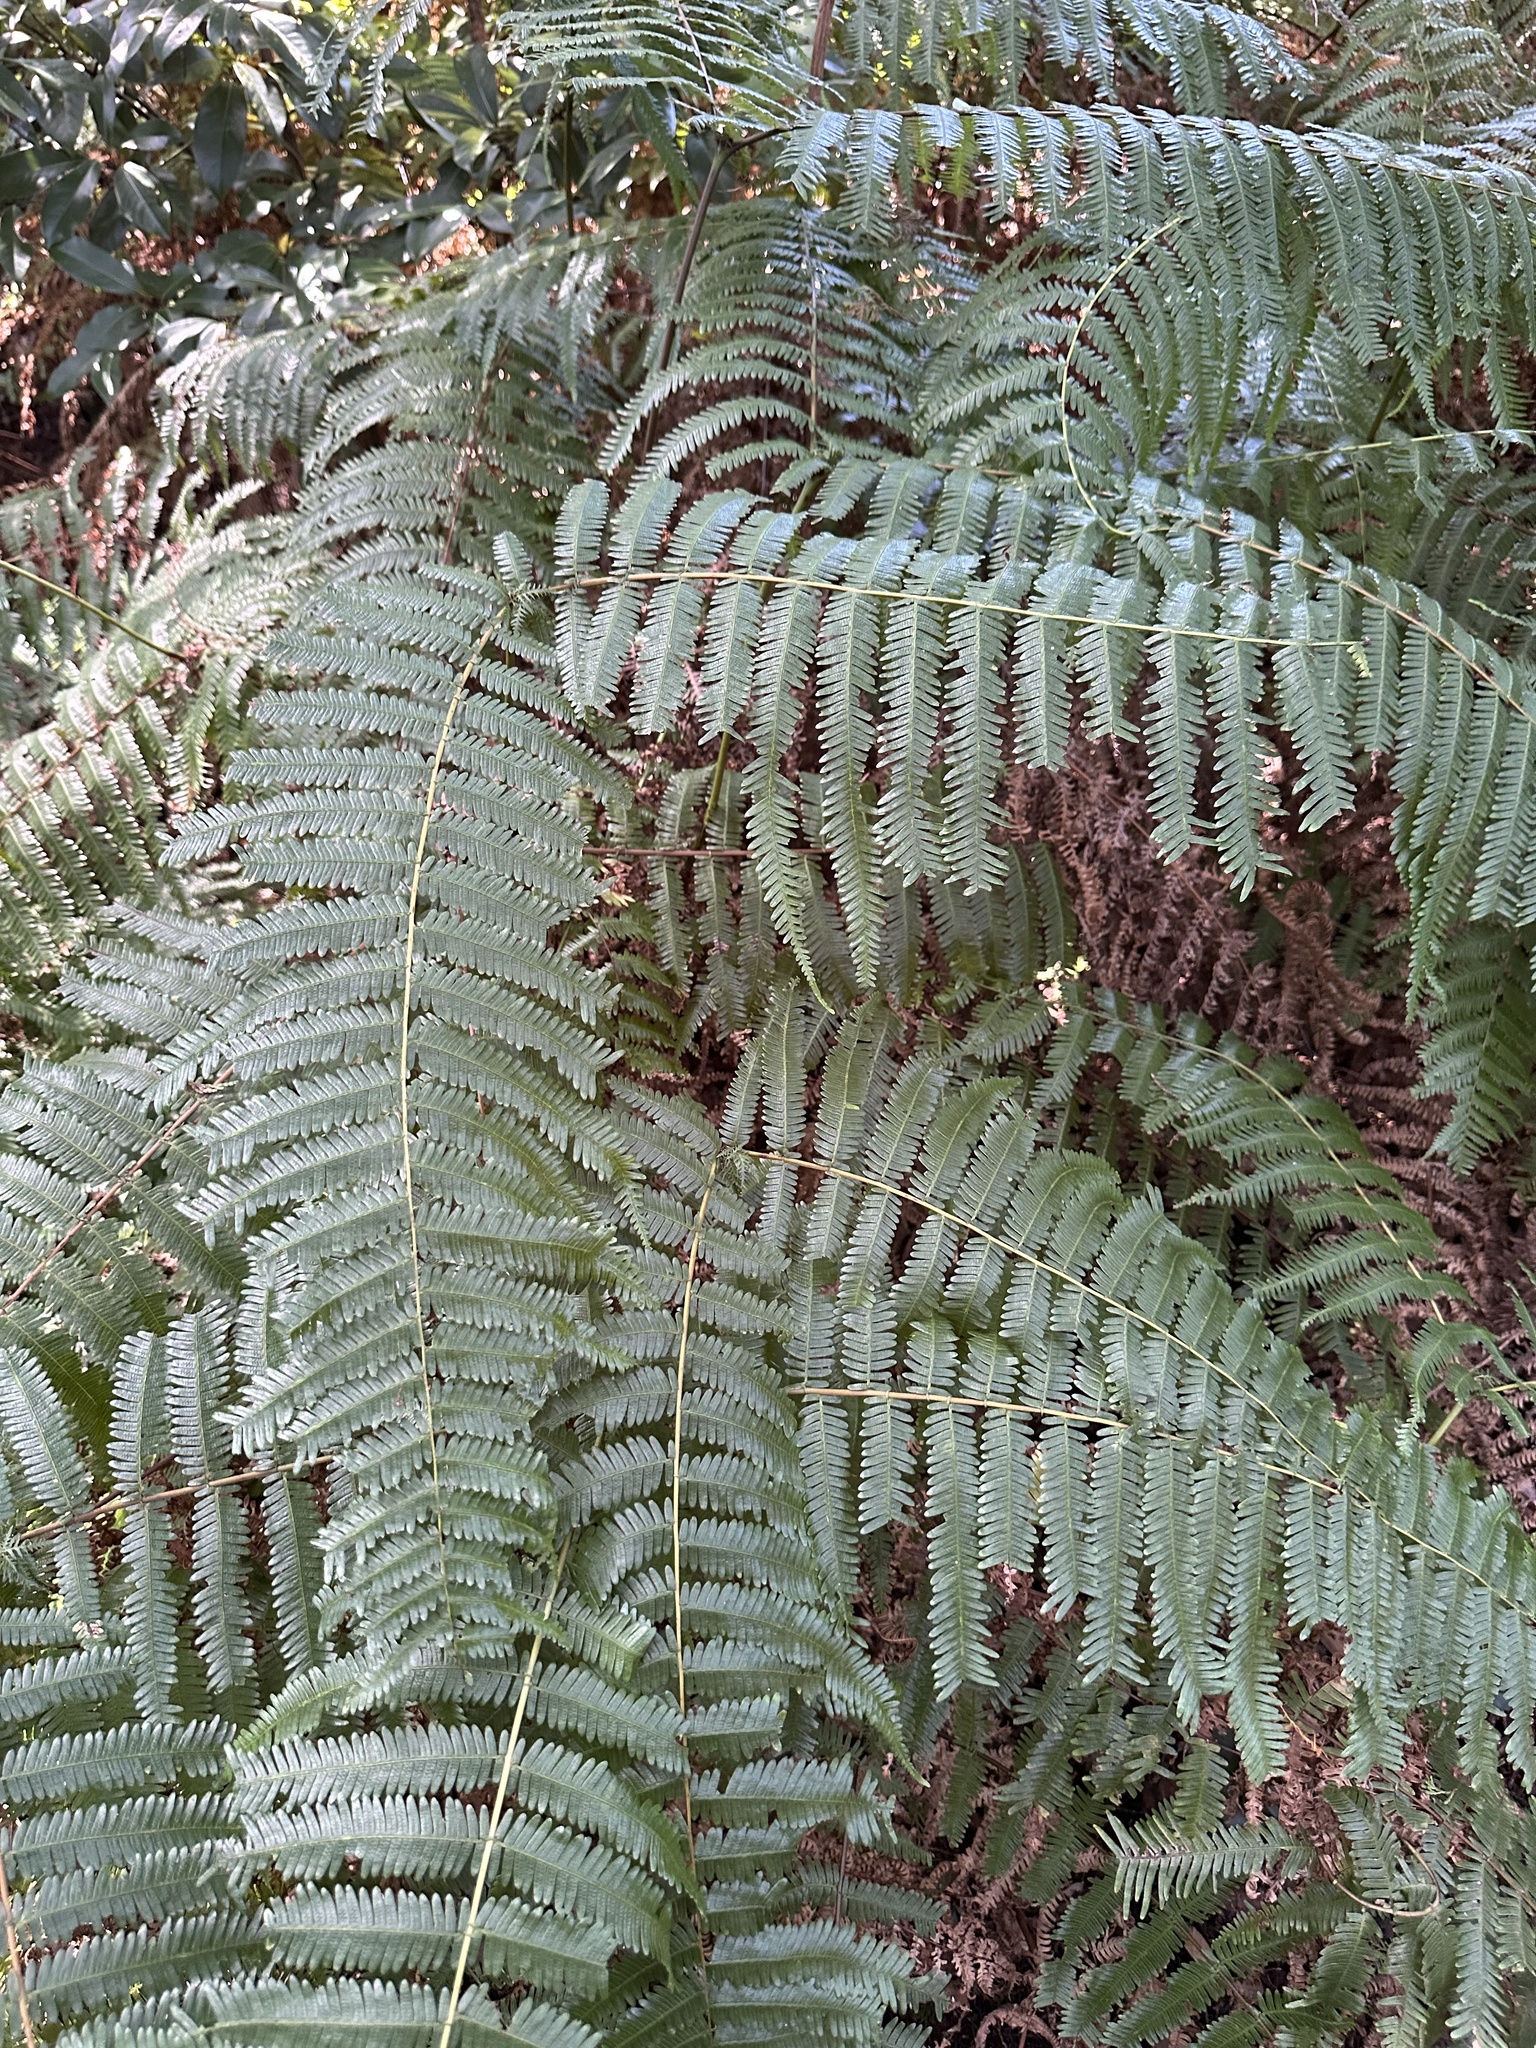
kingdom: Plantae
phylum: Tracheophyta
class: Polypodiopsida
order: Gleicheniales
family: Gleicheniaceae
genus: Diplopterygium
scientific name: Diplopterygium glaucum
